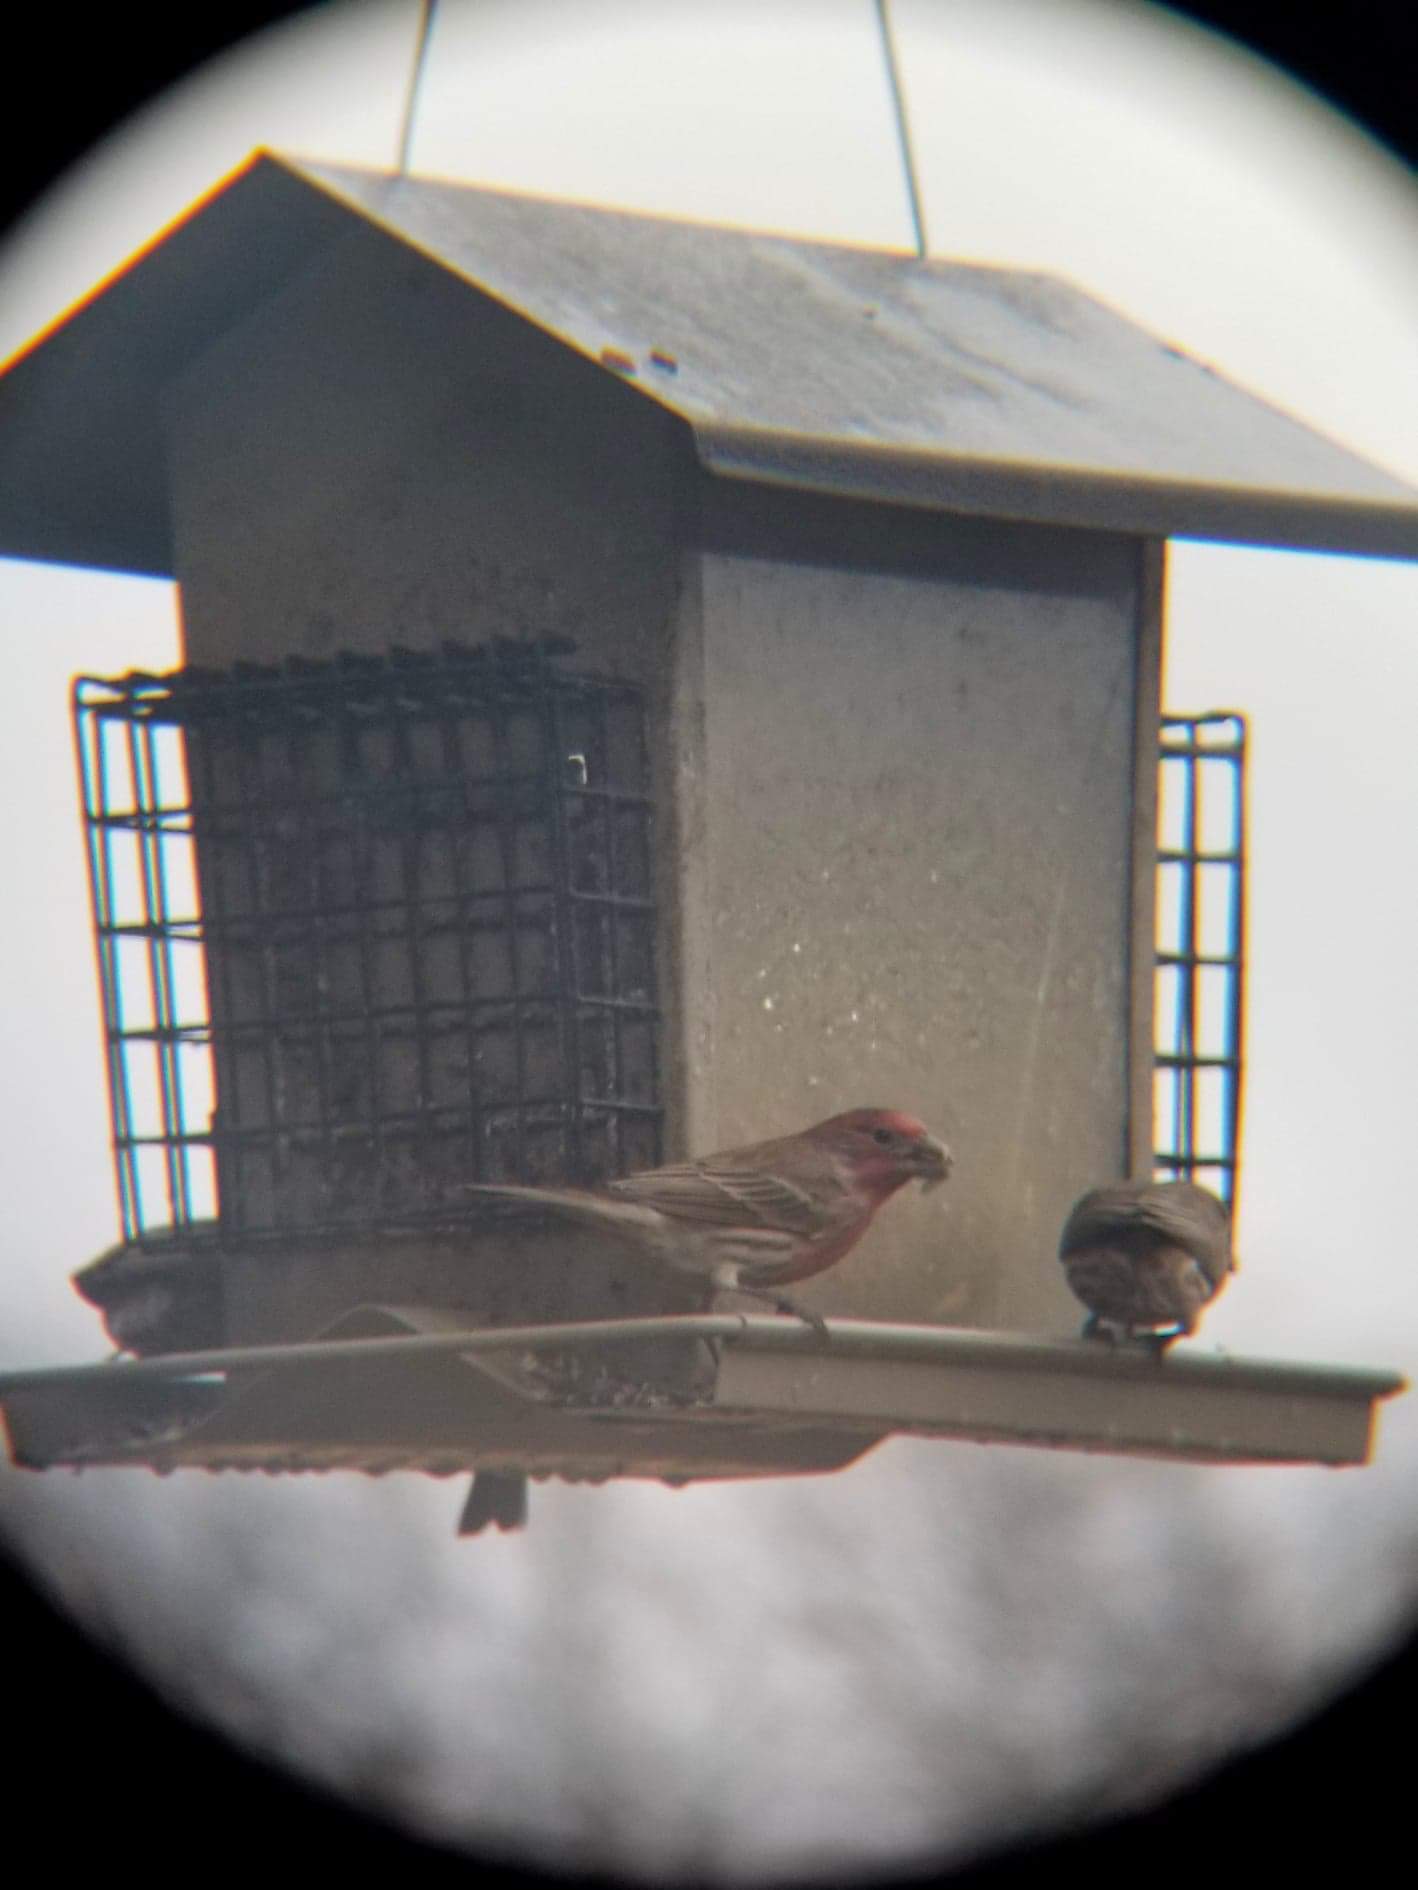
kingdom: Animalia
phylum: Chordata
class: Aves
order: Passeriformes
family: Fringillidae
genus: Haemorhous
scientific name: Haemorhous mexicanus
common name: House finch
